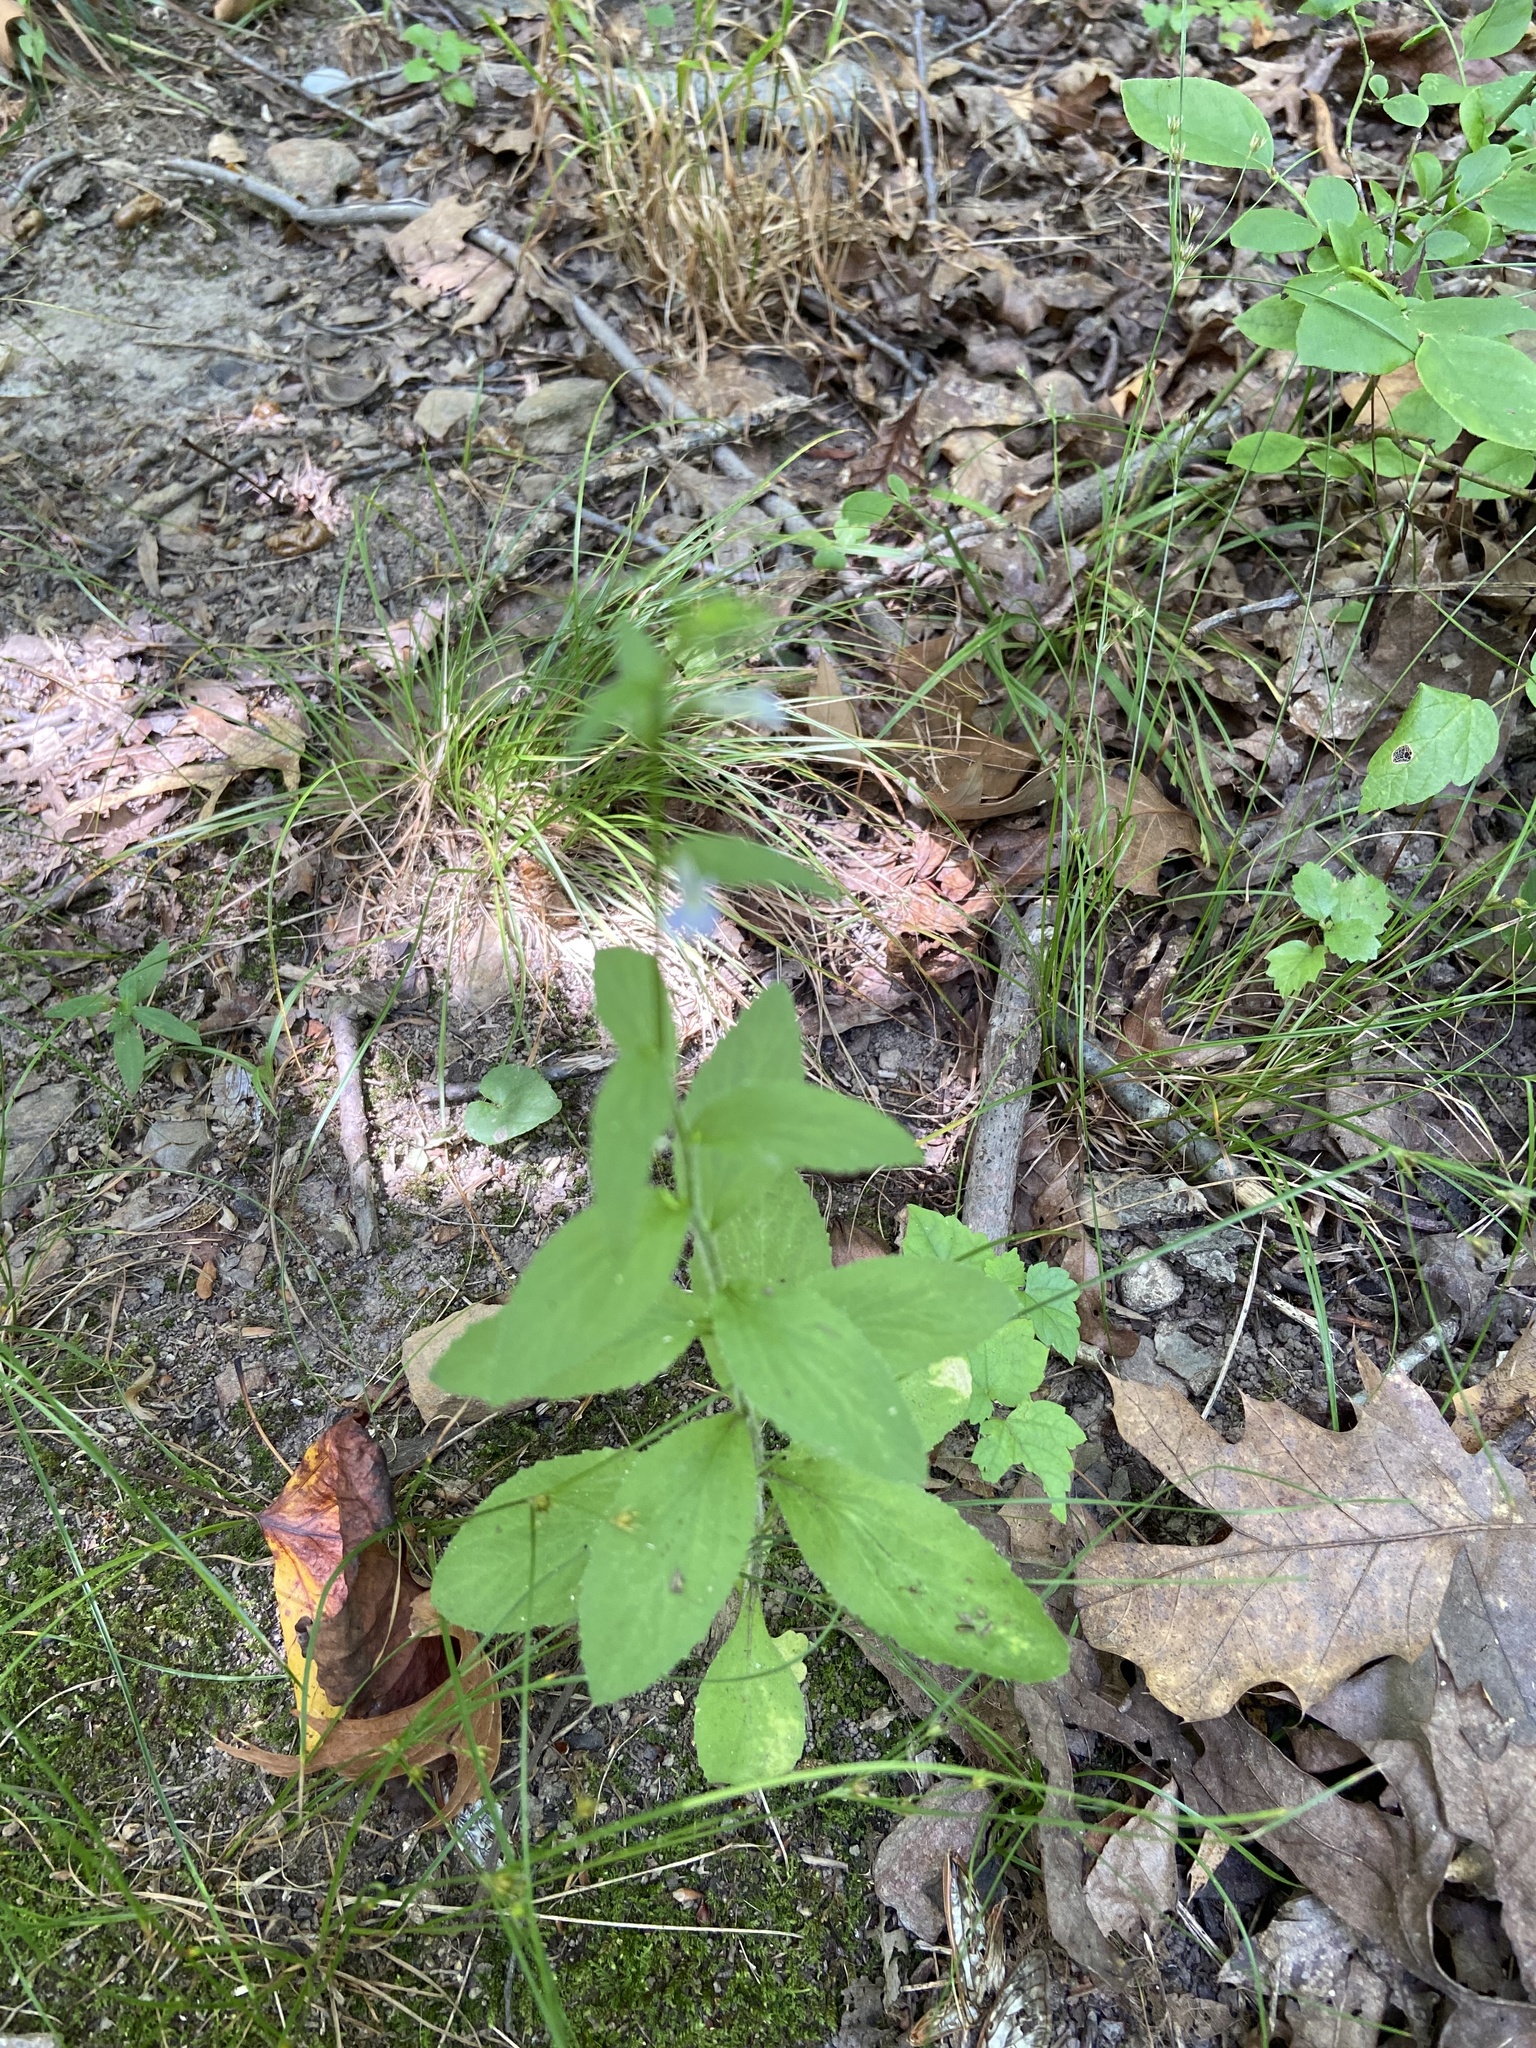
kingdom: Plantae
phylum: Tracheophyta
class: Magnoliopsida
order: Asterales
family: Campanulaceae
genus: Lobelia
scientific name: Lobelia inflata
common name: Indian tobacco
